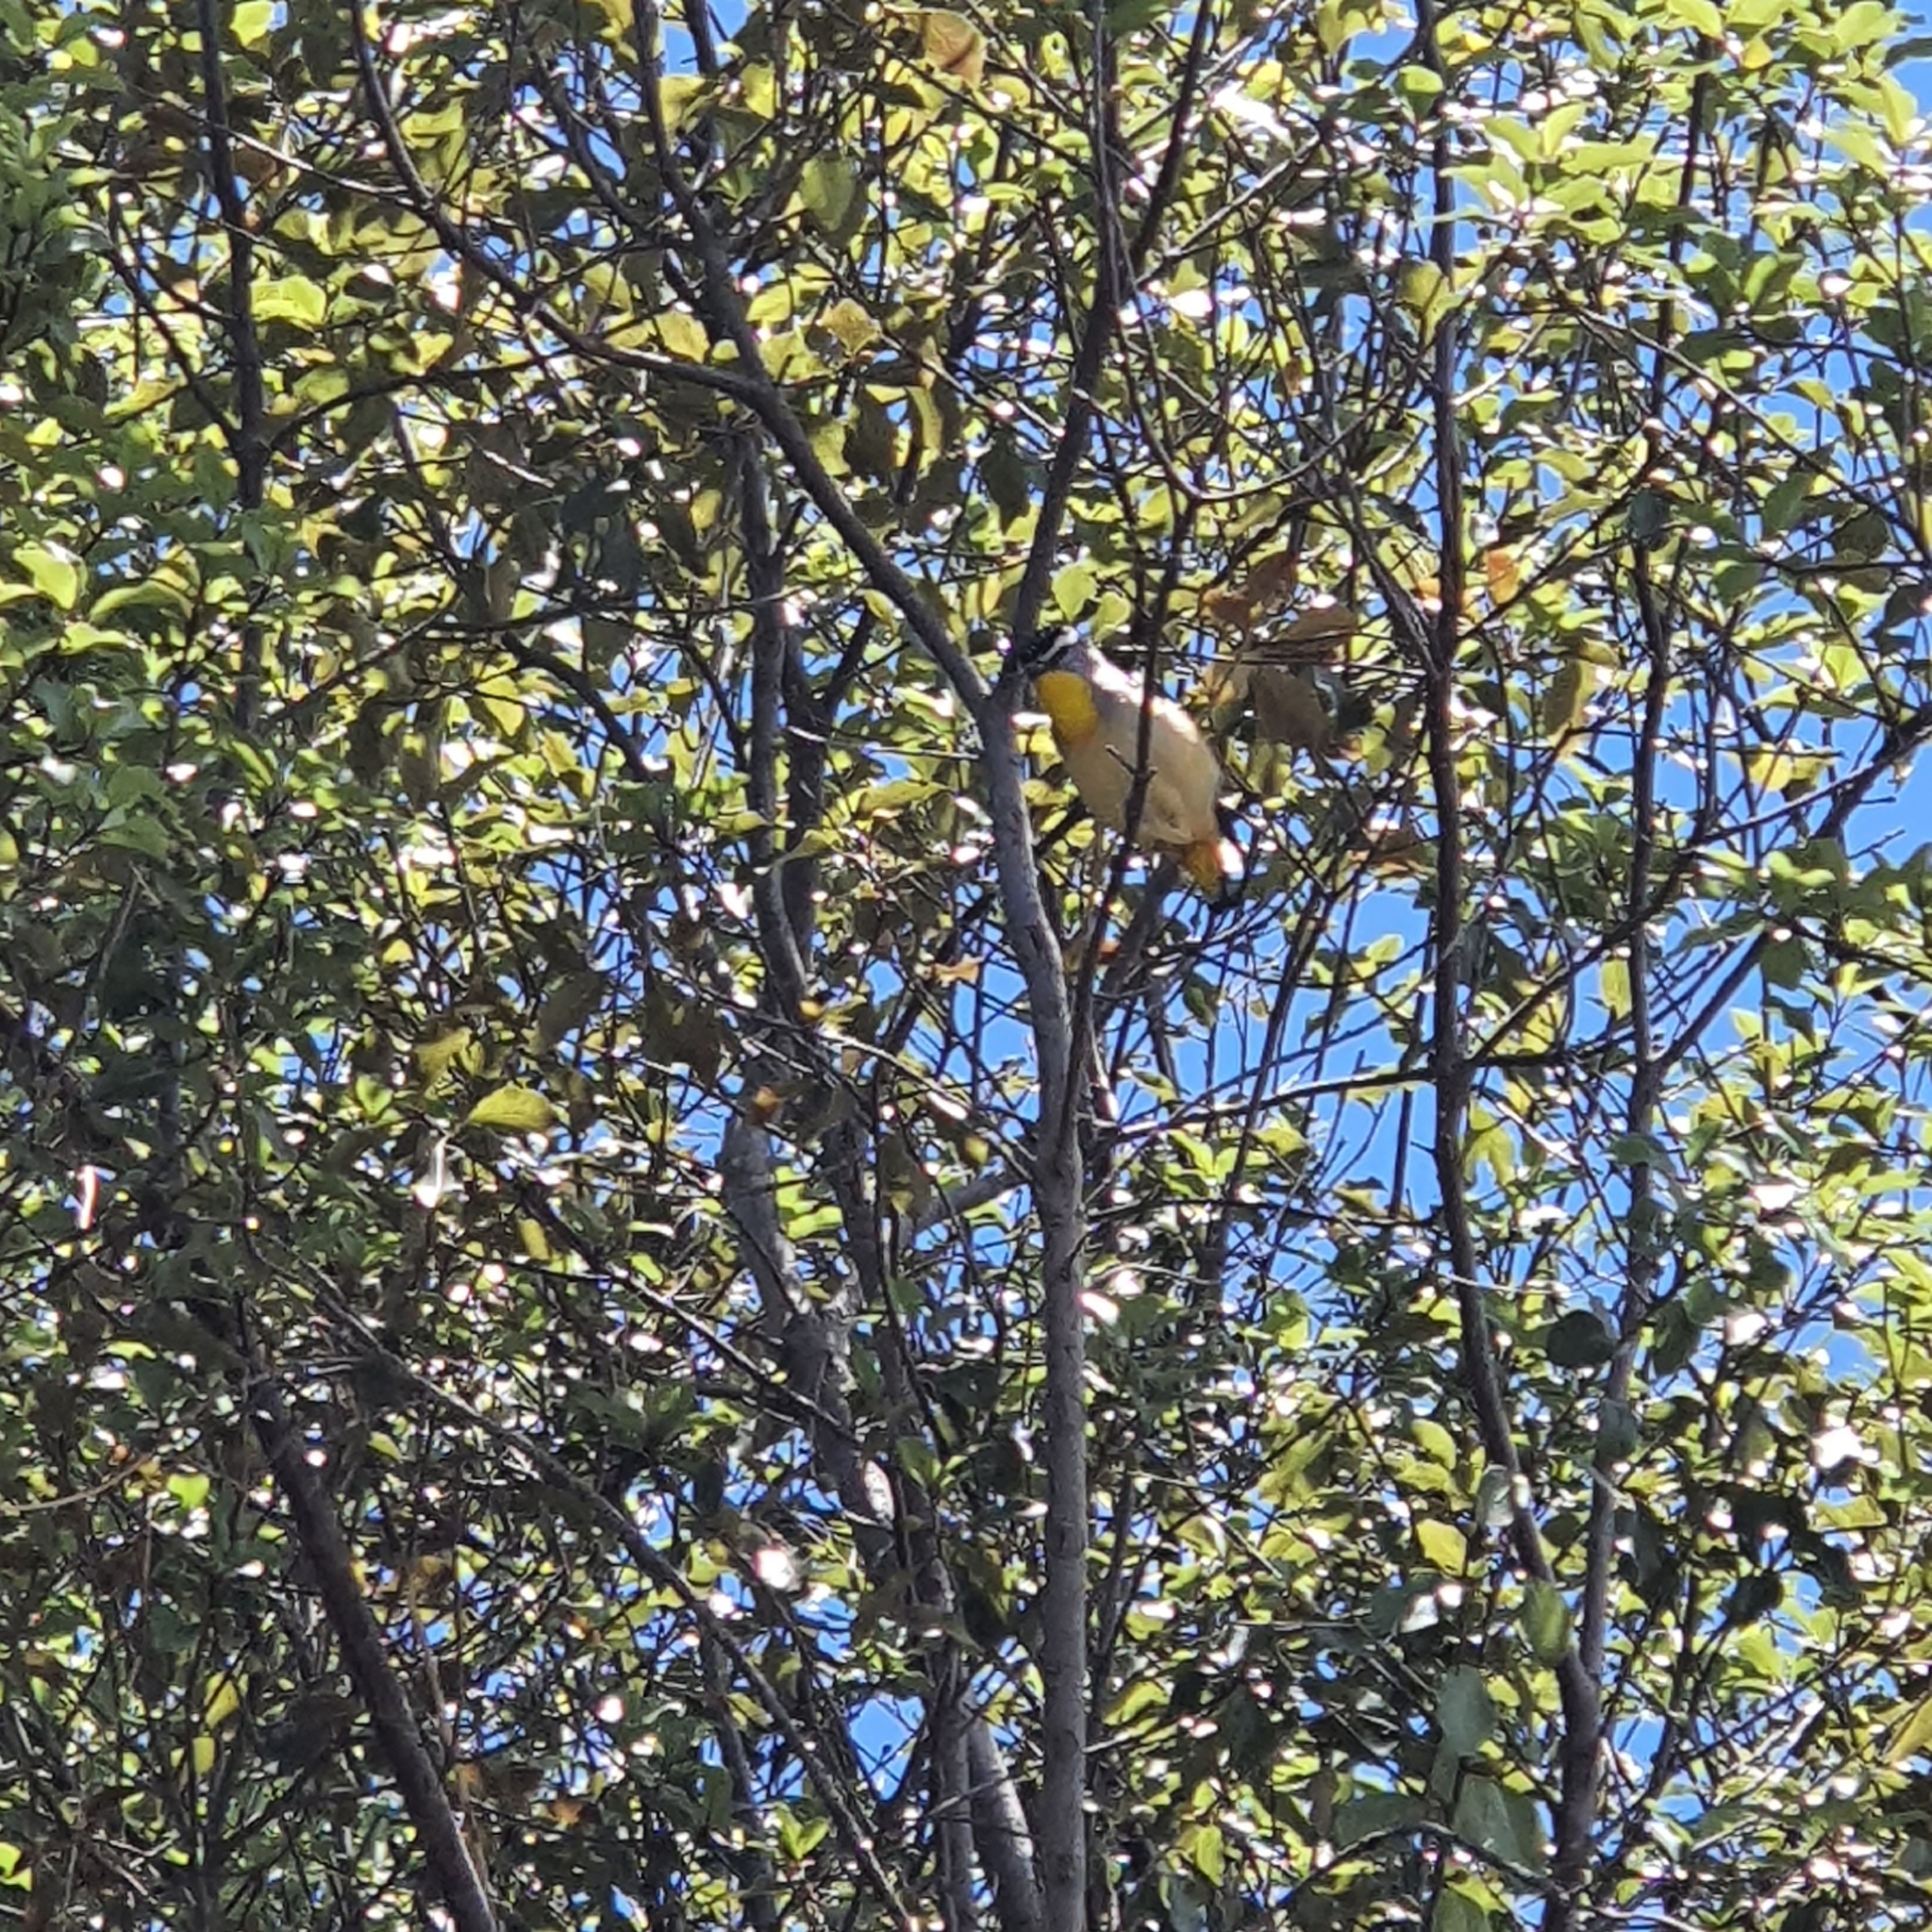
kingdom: Animalia
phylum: Chordata
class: Aves
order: Passeriformes
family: Pardalotidae
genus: Pardalotus
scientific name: Pardalotus punctatus
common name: Spotted pardalote
